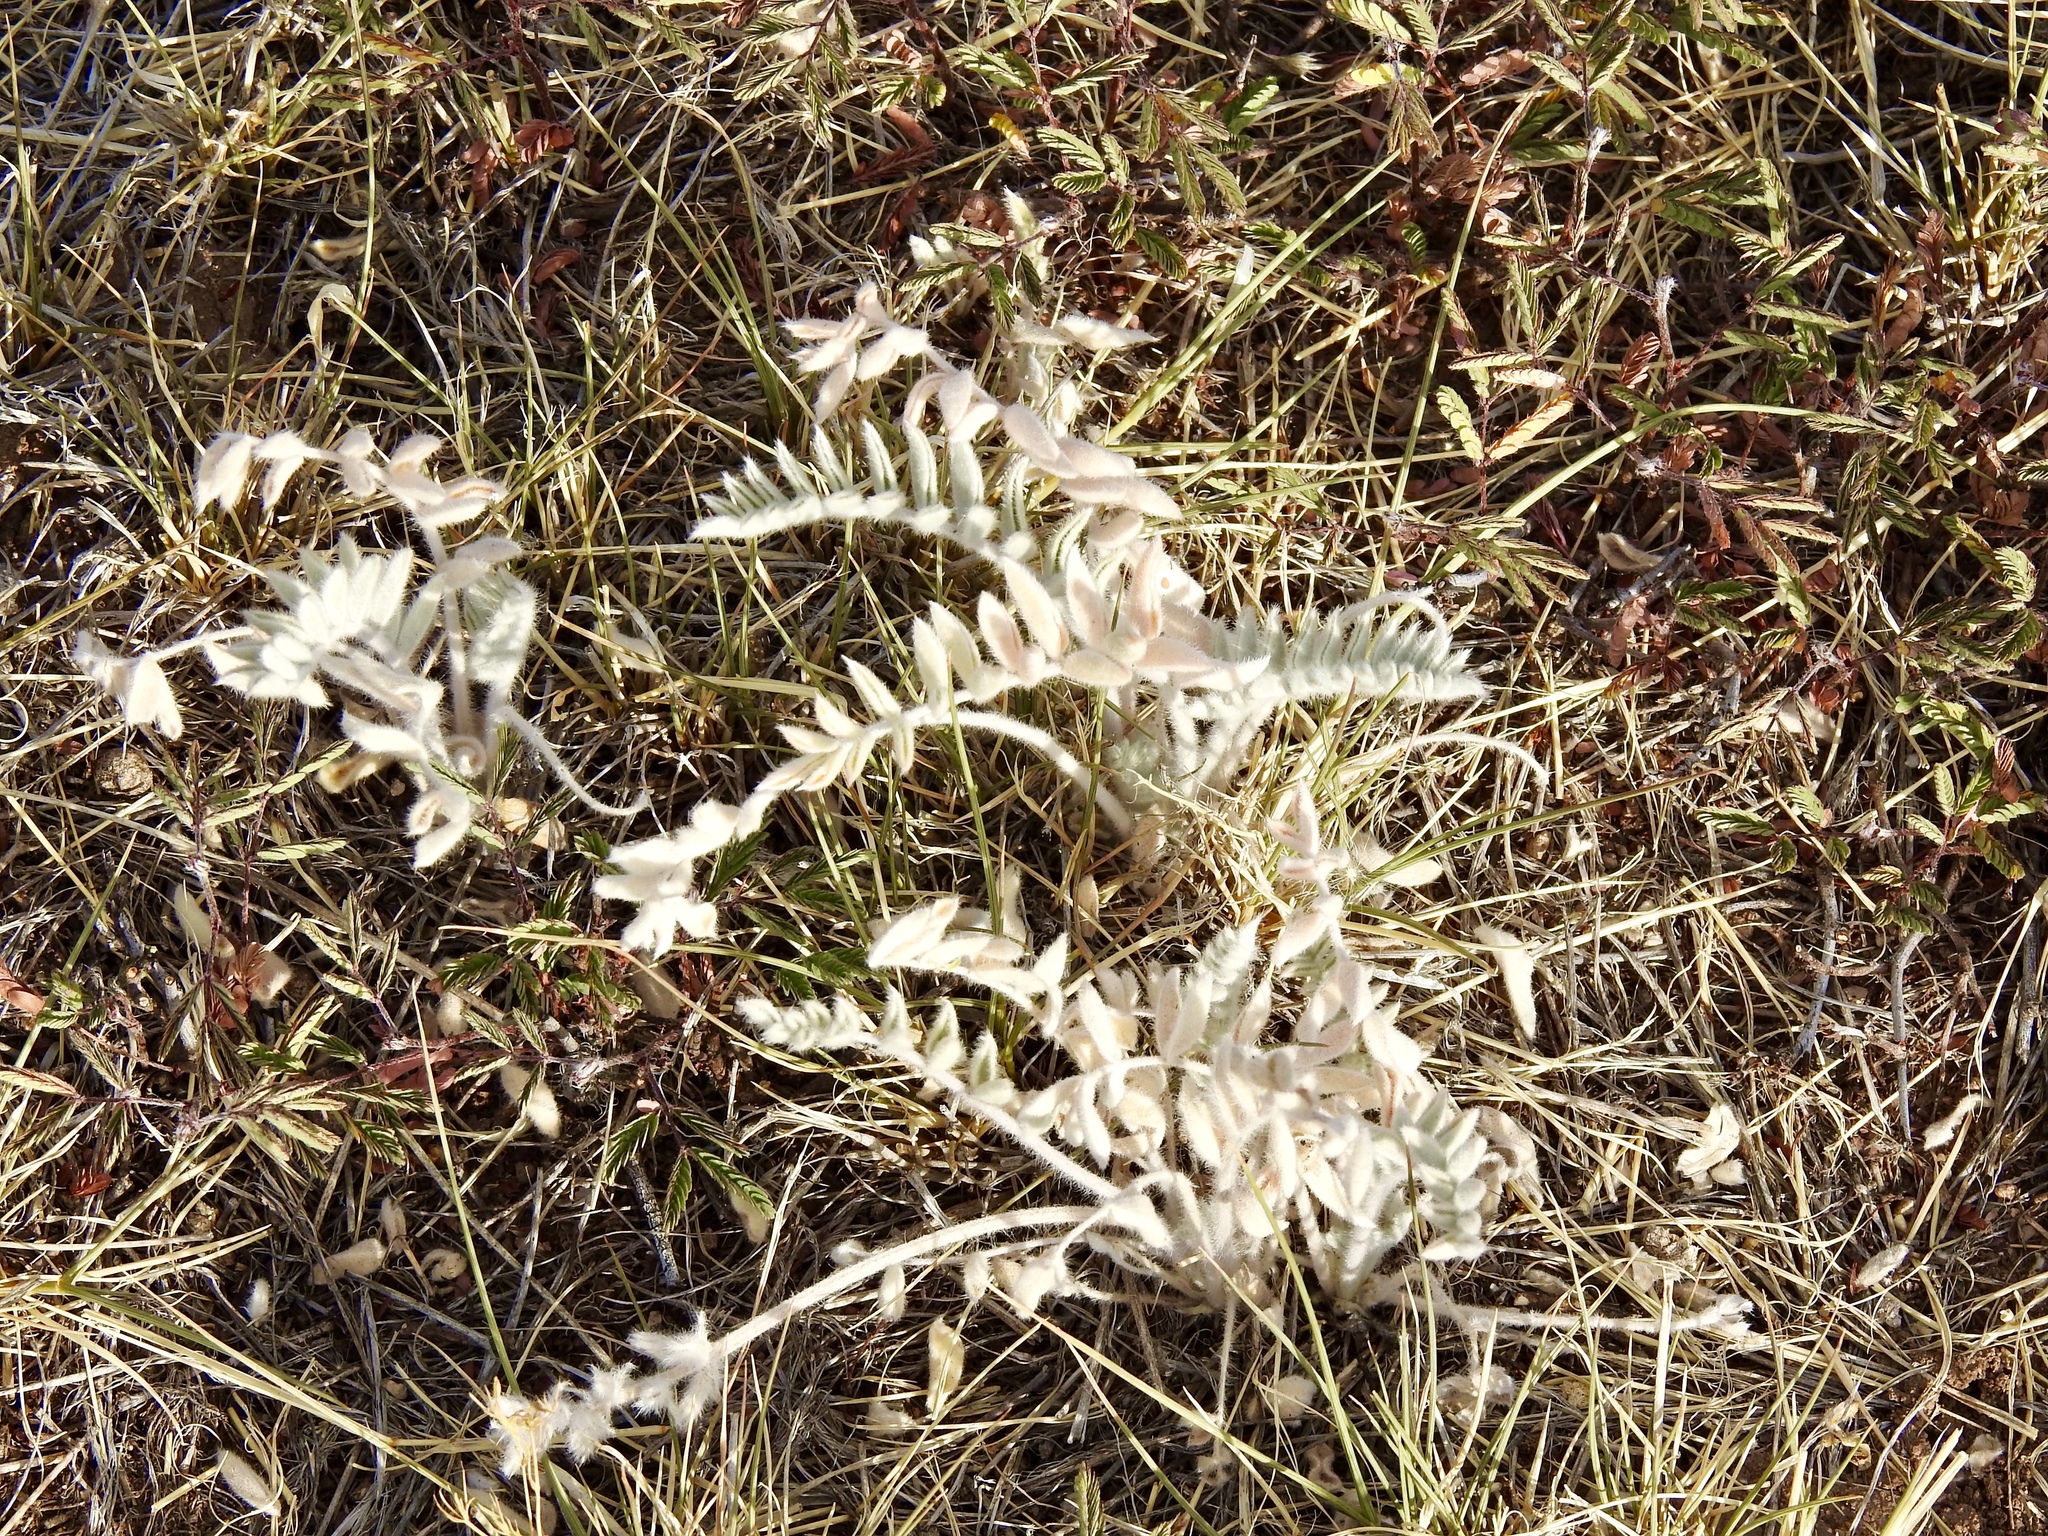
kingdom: Plantae
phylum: Tracheophyta
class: Magnoliopsida
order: Fabales
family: Fabaceae
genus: Astragalus
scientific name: Astragalus mollissimus
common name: Woolly locoweed
